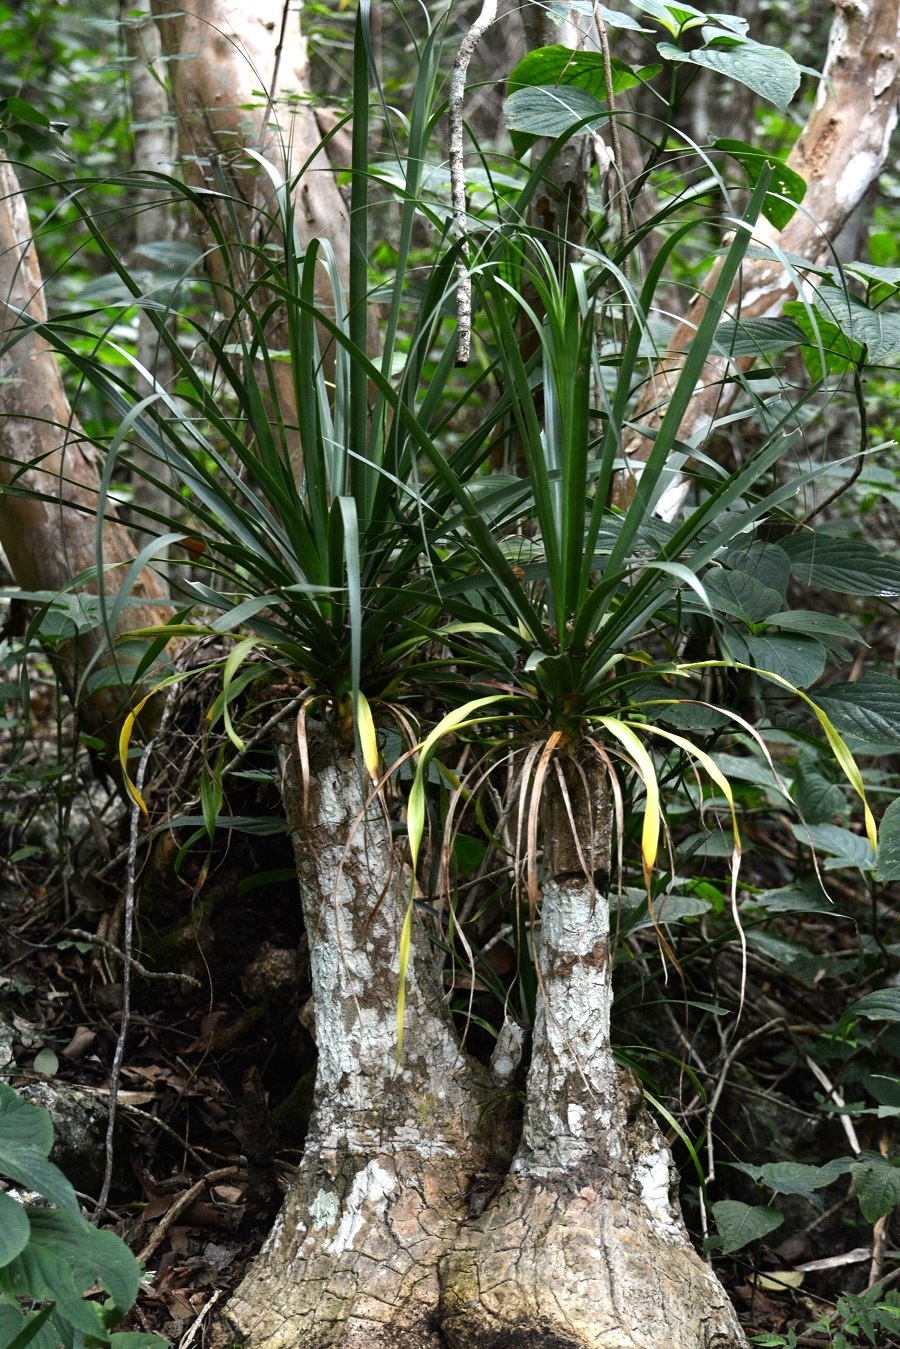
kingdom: Plantae
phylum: Tracheophyta
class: Liliopsida
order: Asparagales
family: Asparagaceae
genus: Beaucarnea
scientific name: Beaucarnea goldmanii
